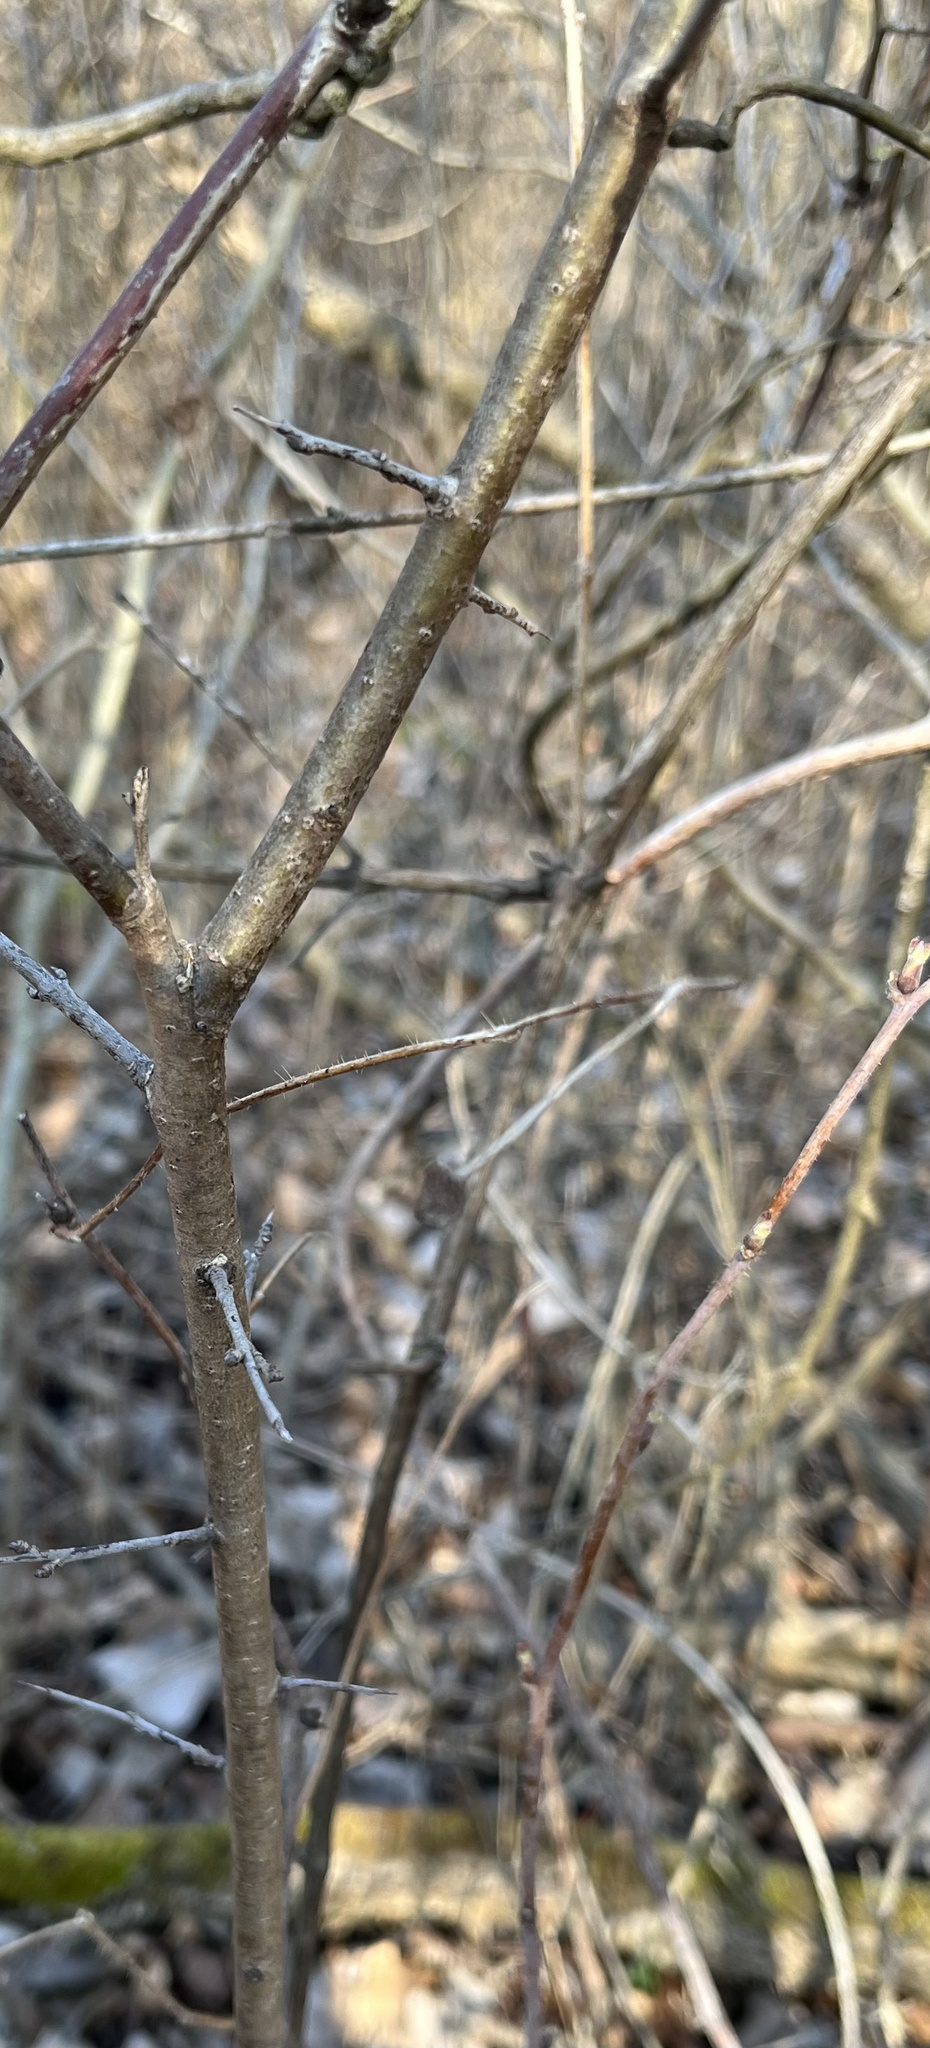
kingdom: Plantae
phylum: Tracheophyta
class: Magnoliopsida
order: Rosales
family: Rhamnaceae
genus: Rhamnus
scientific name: Rhamnus cathartica
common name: Common buckthorn
